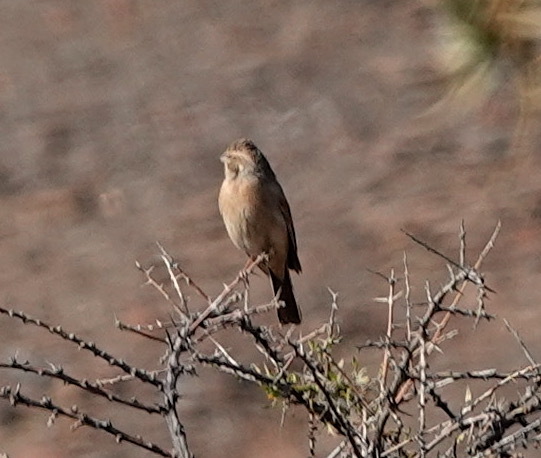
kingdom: Animalia
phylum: Chordata
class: Aves
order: Passeriformes
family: Emberizidae
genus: Emberiza
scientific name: Emberiza impetuani
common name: Lark-like bunting
